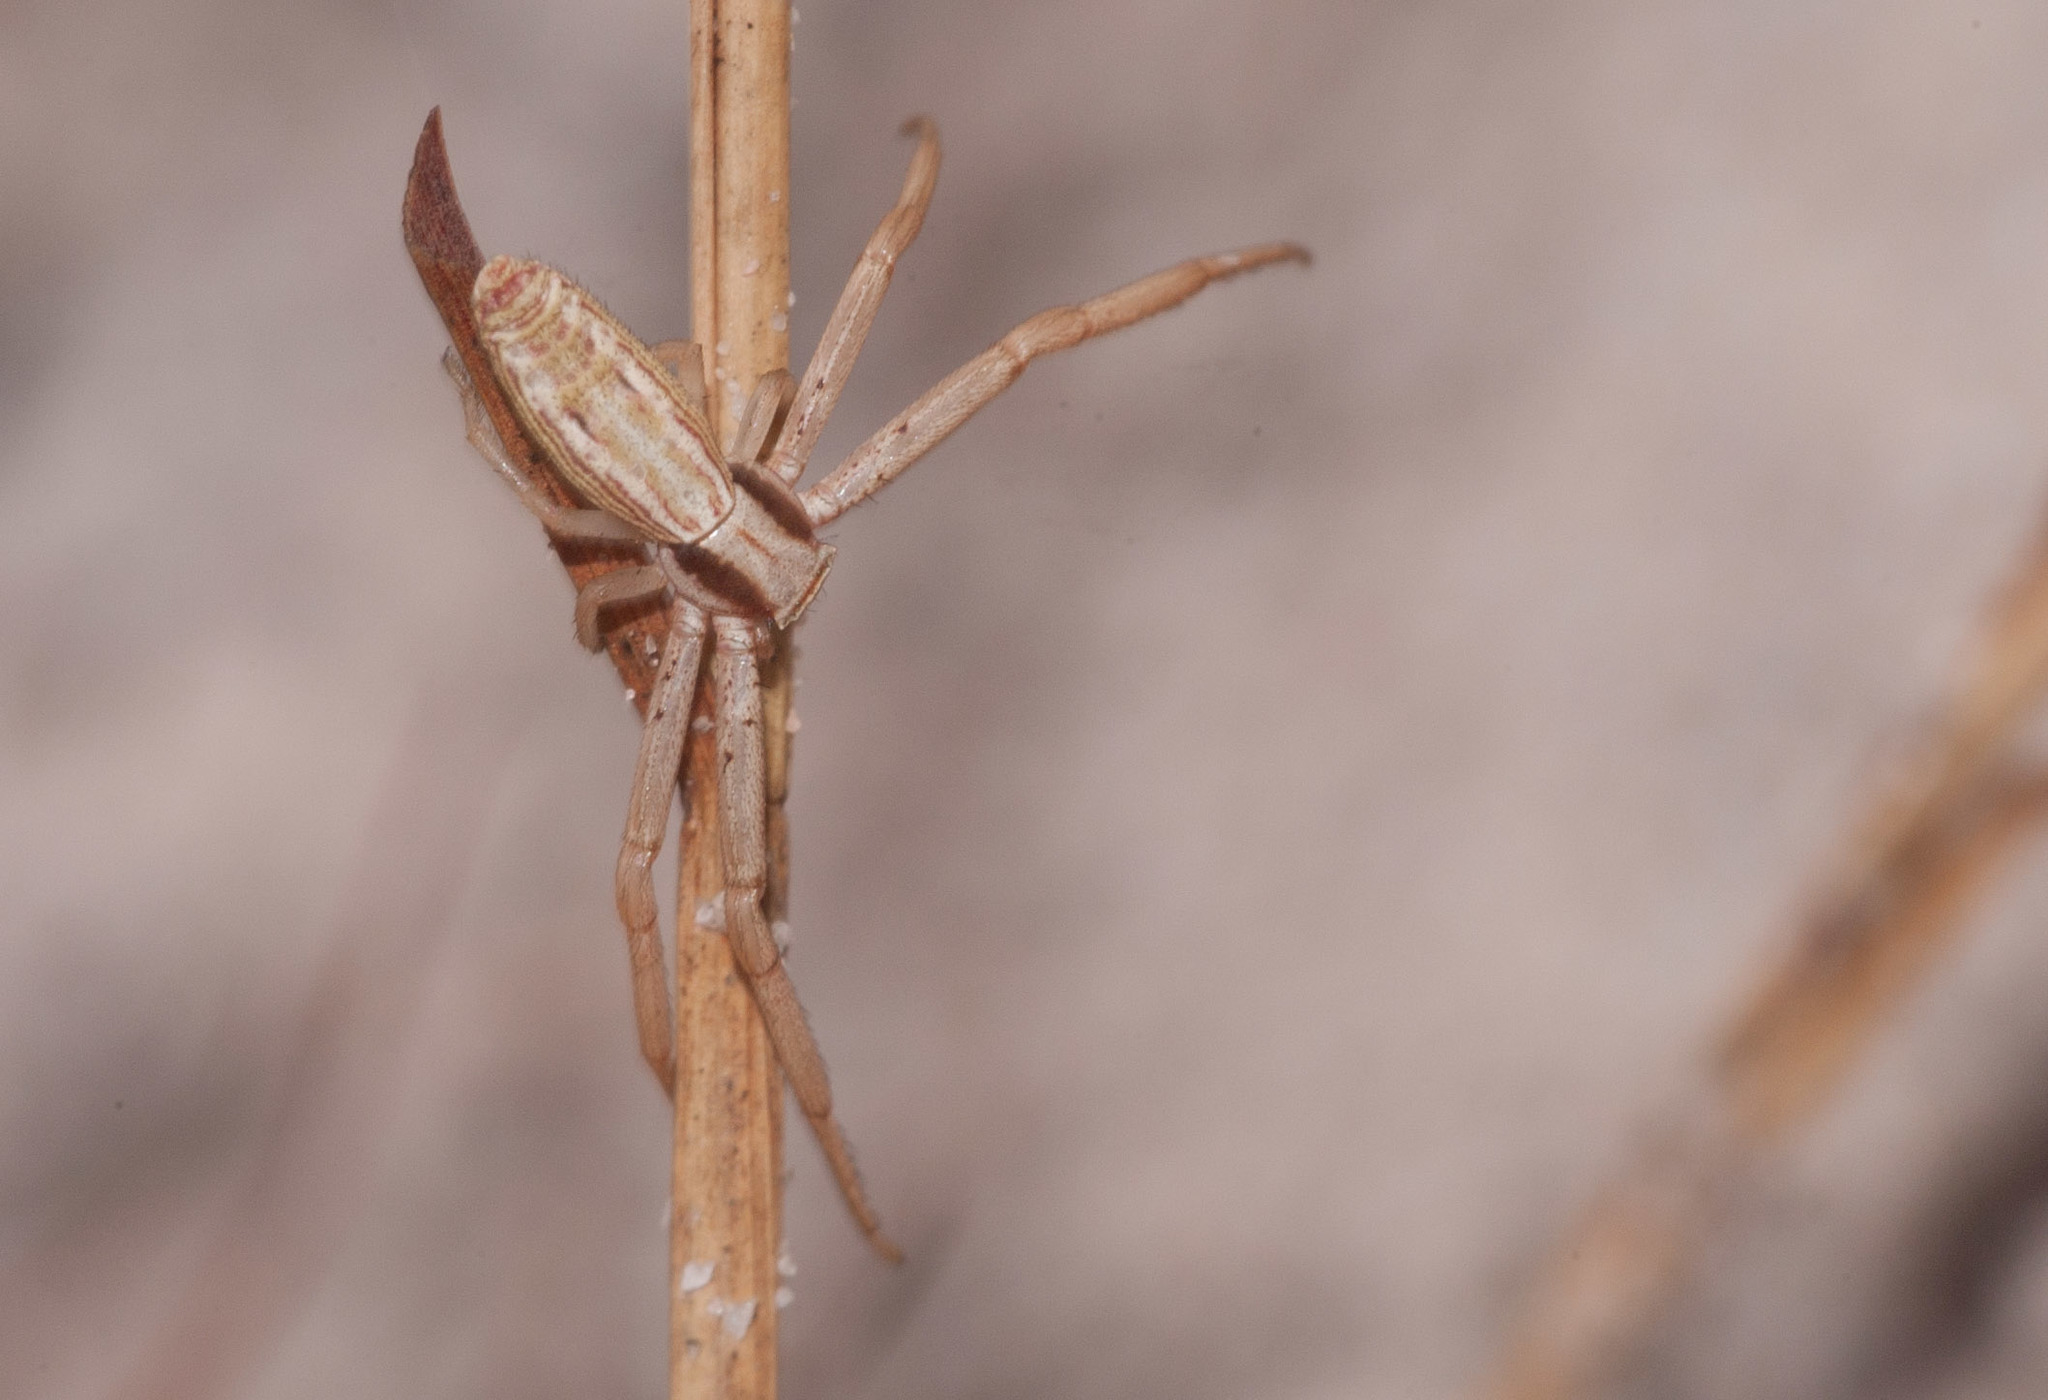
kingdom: Animalia
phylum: Arthropoda
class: Arachnida
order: Araneae
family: Thomisidae
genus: Runcinia
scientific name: Runcinia acuminata
